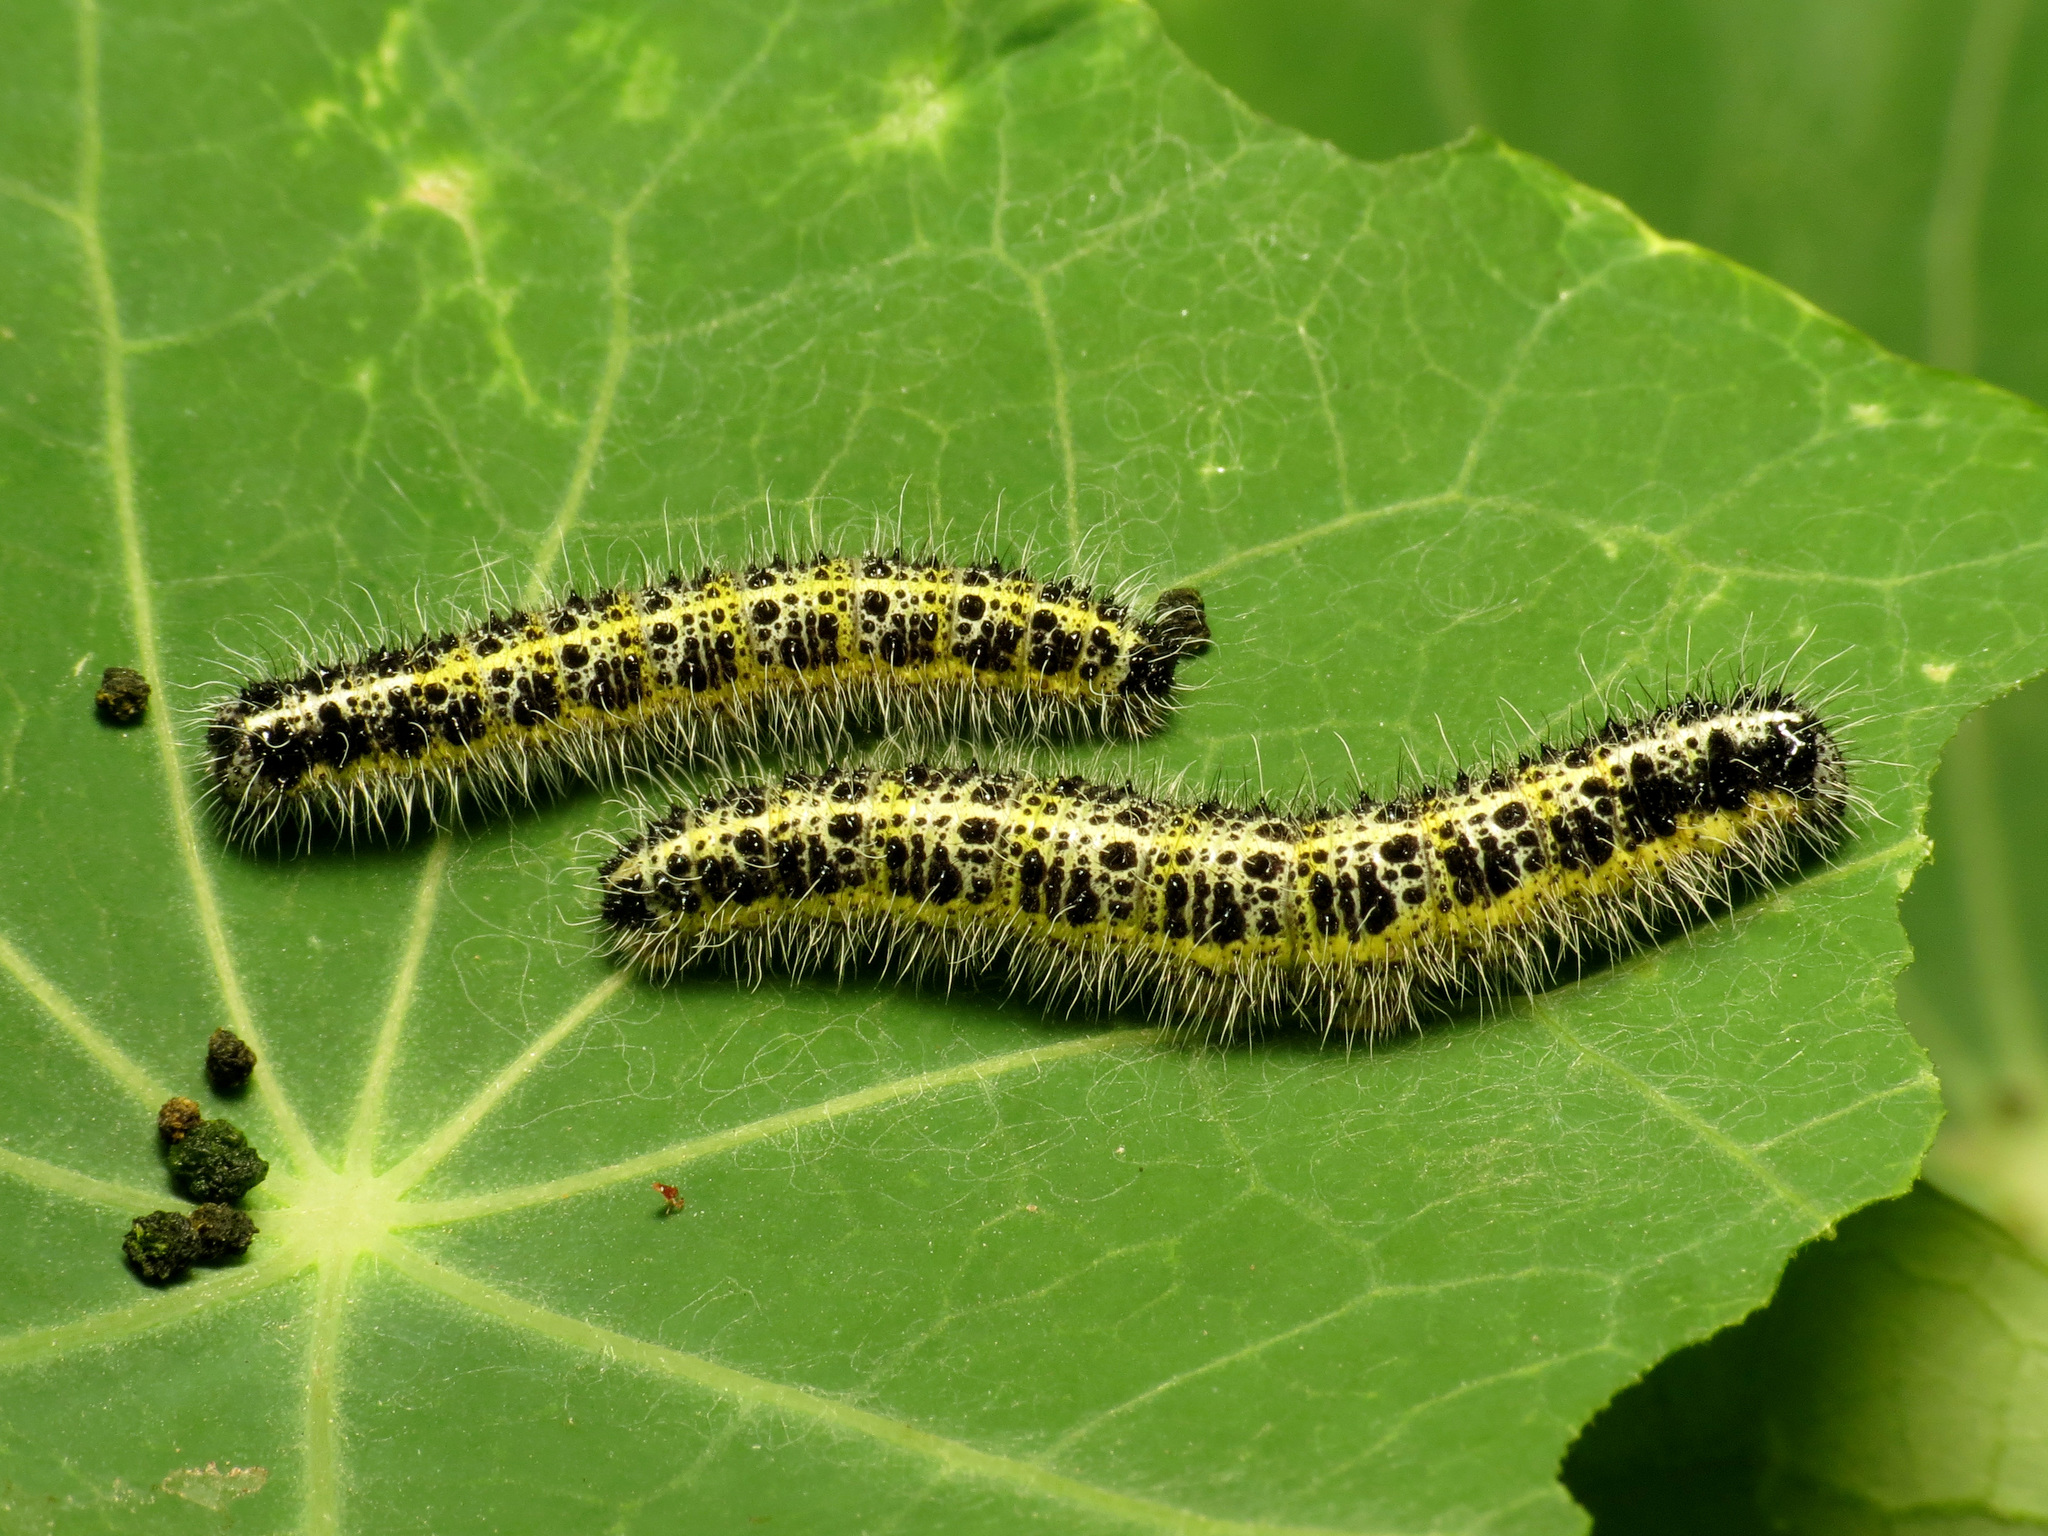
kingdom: Animalia
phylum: Arthropoda
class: Insecta
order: Lepidoptera
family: Pieridae
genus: Pieris
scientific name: Pieris brassicae
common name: Large white
